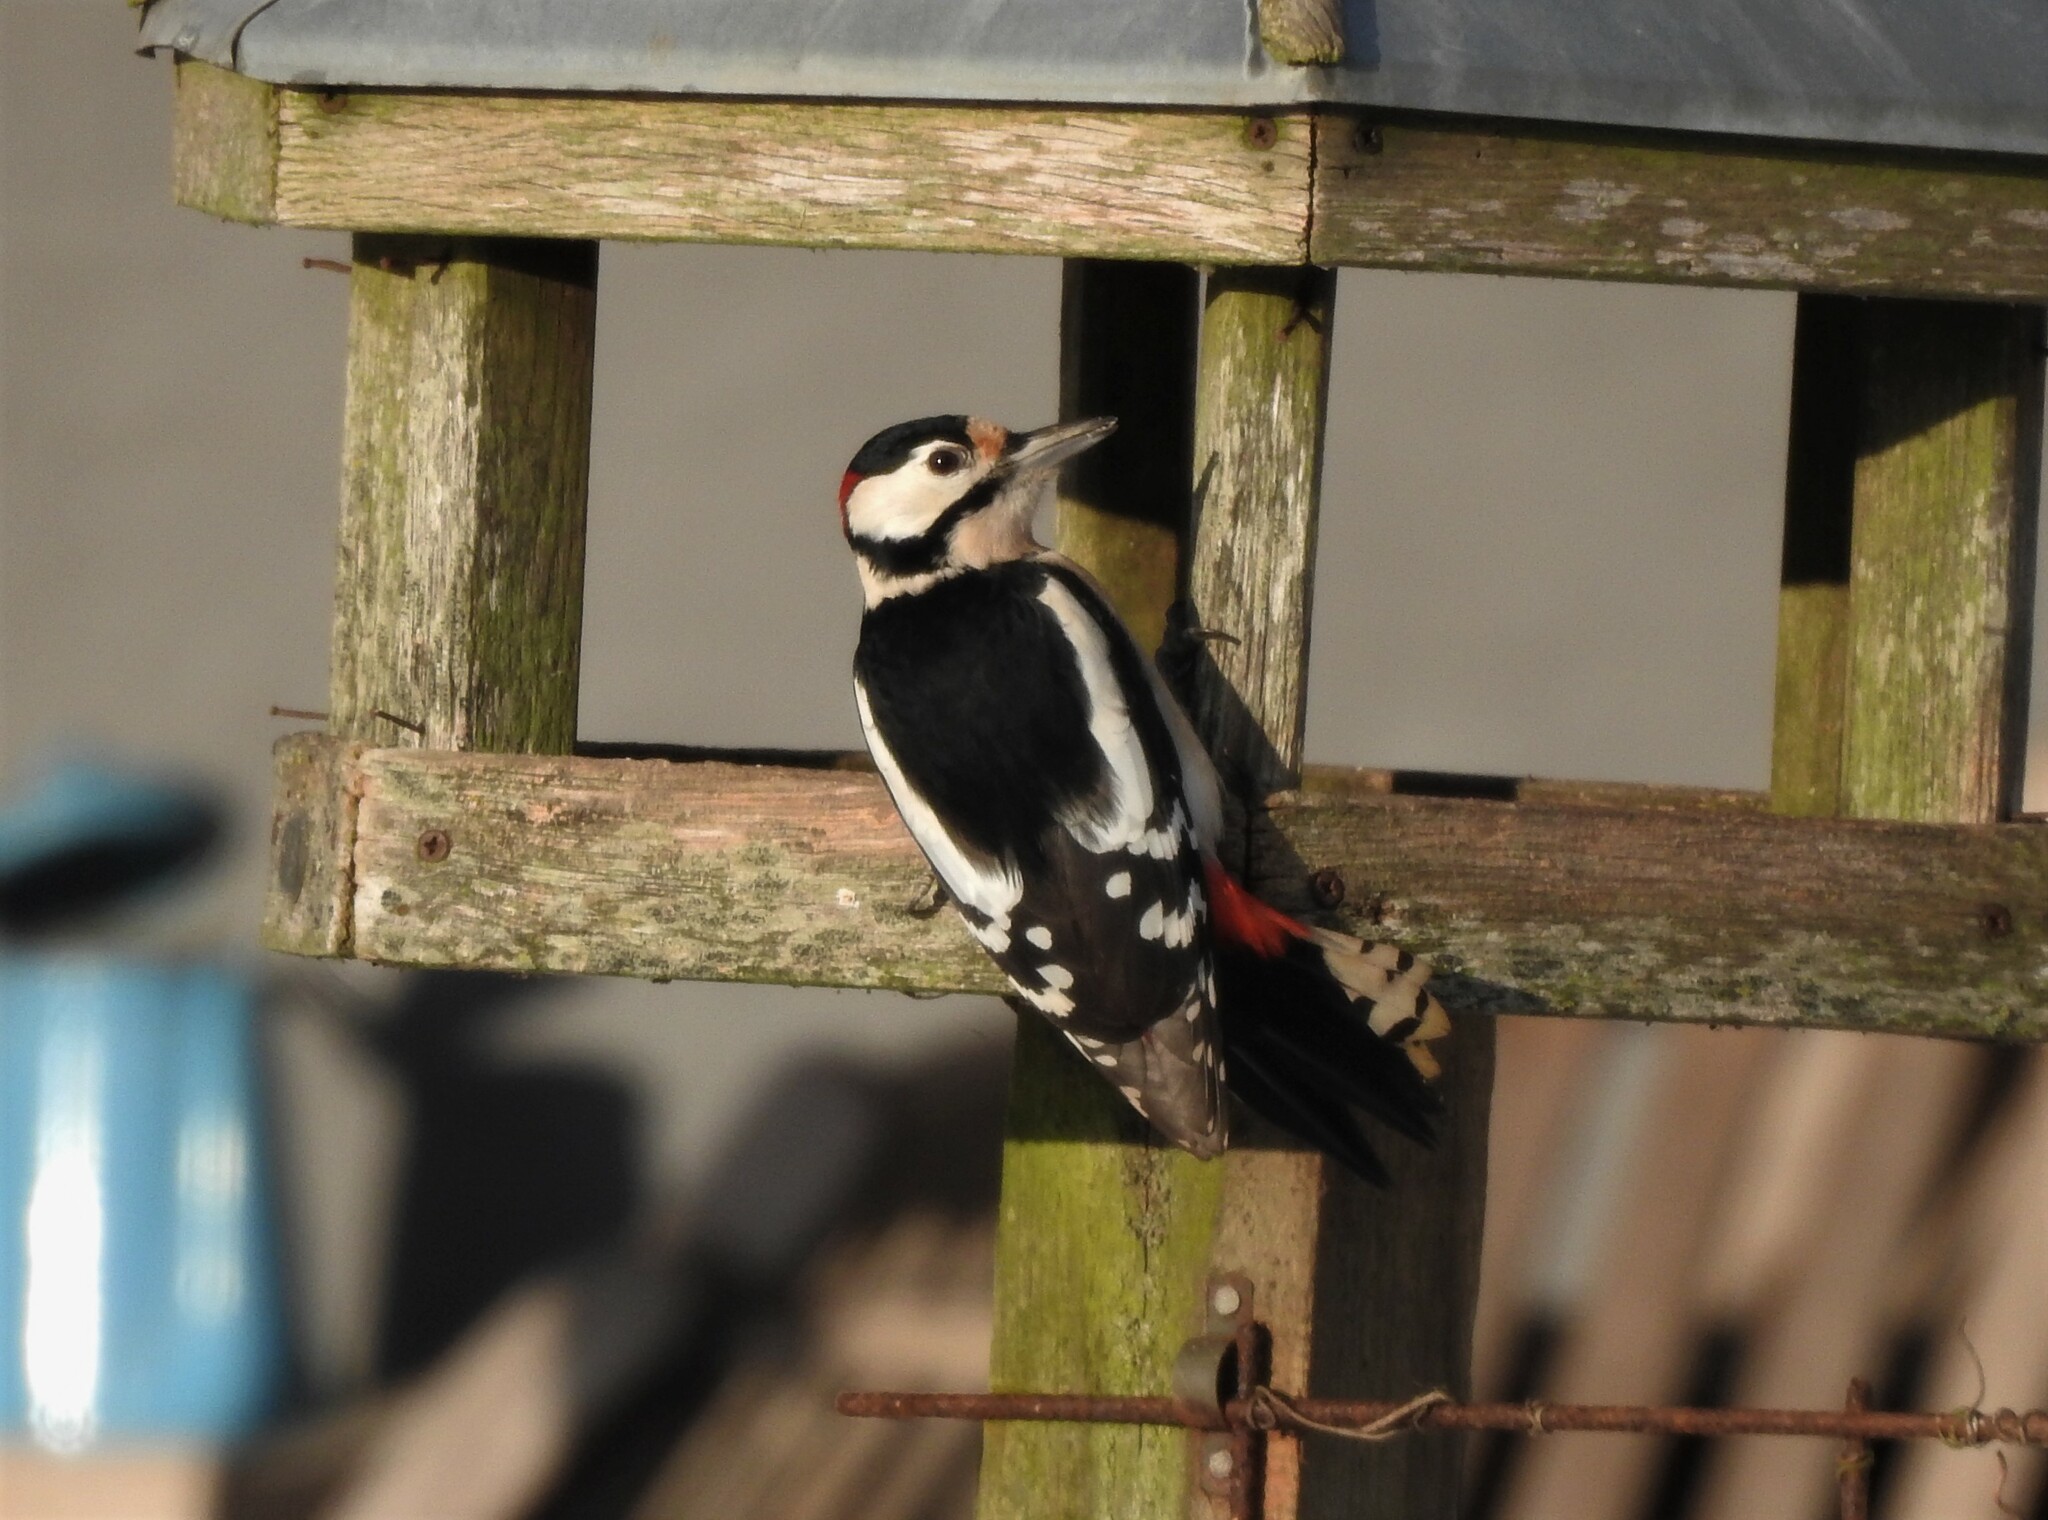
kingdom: Animalia
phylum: Chordata
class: Aves
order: Piciformes
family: Picidae
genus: Dendrocopos
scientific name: Dendrocopos major
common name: Great spotted woodpecker
